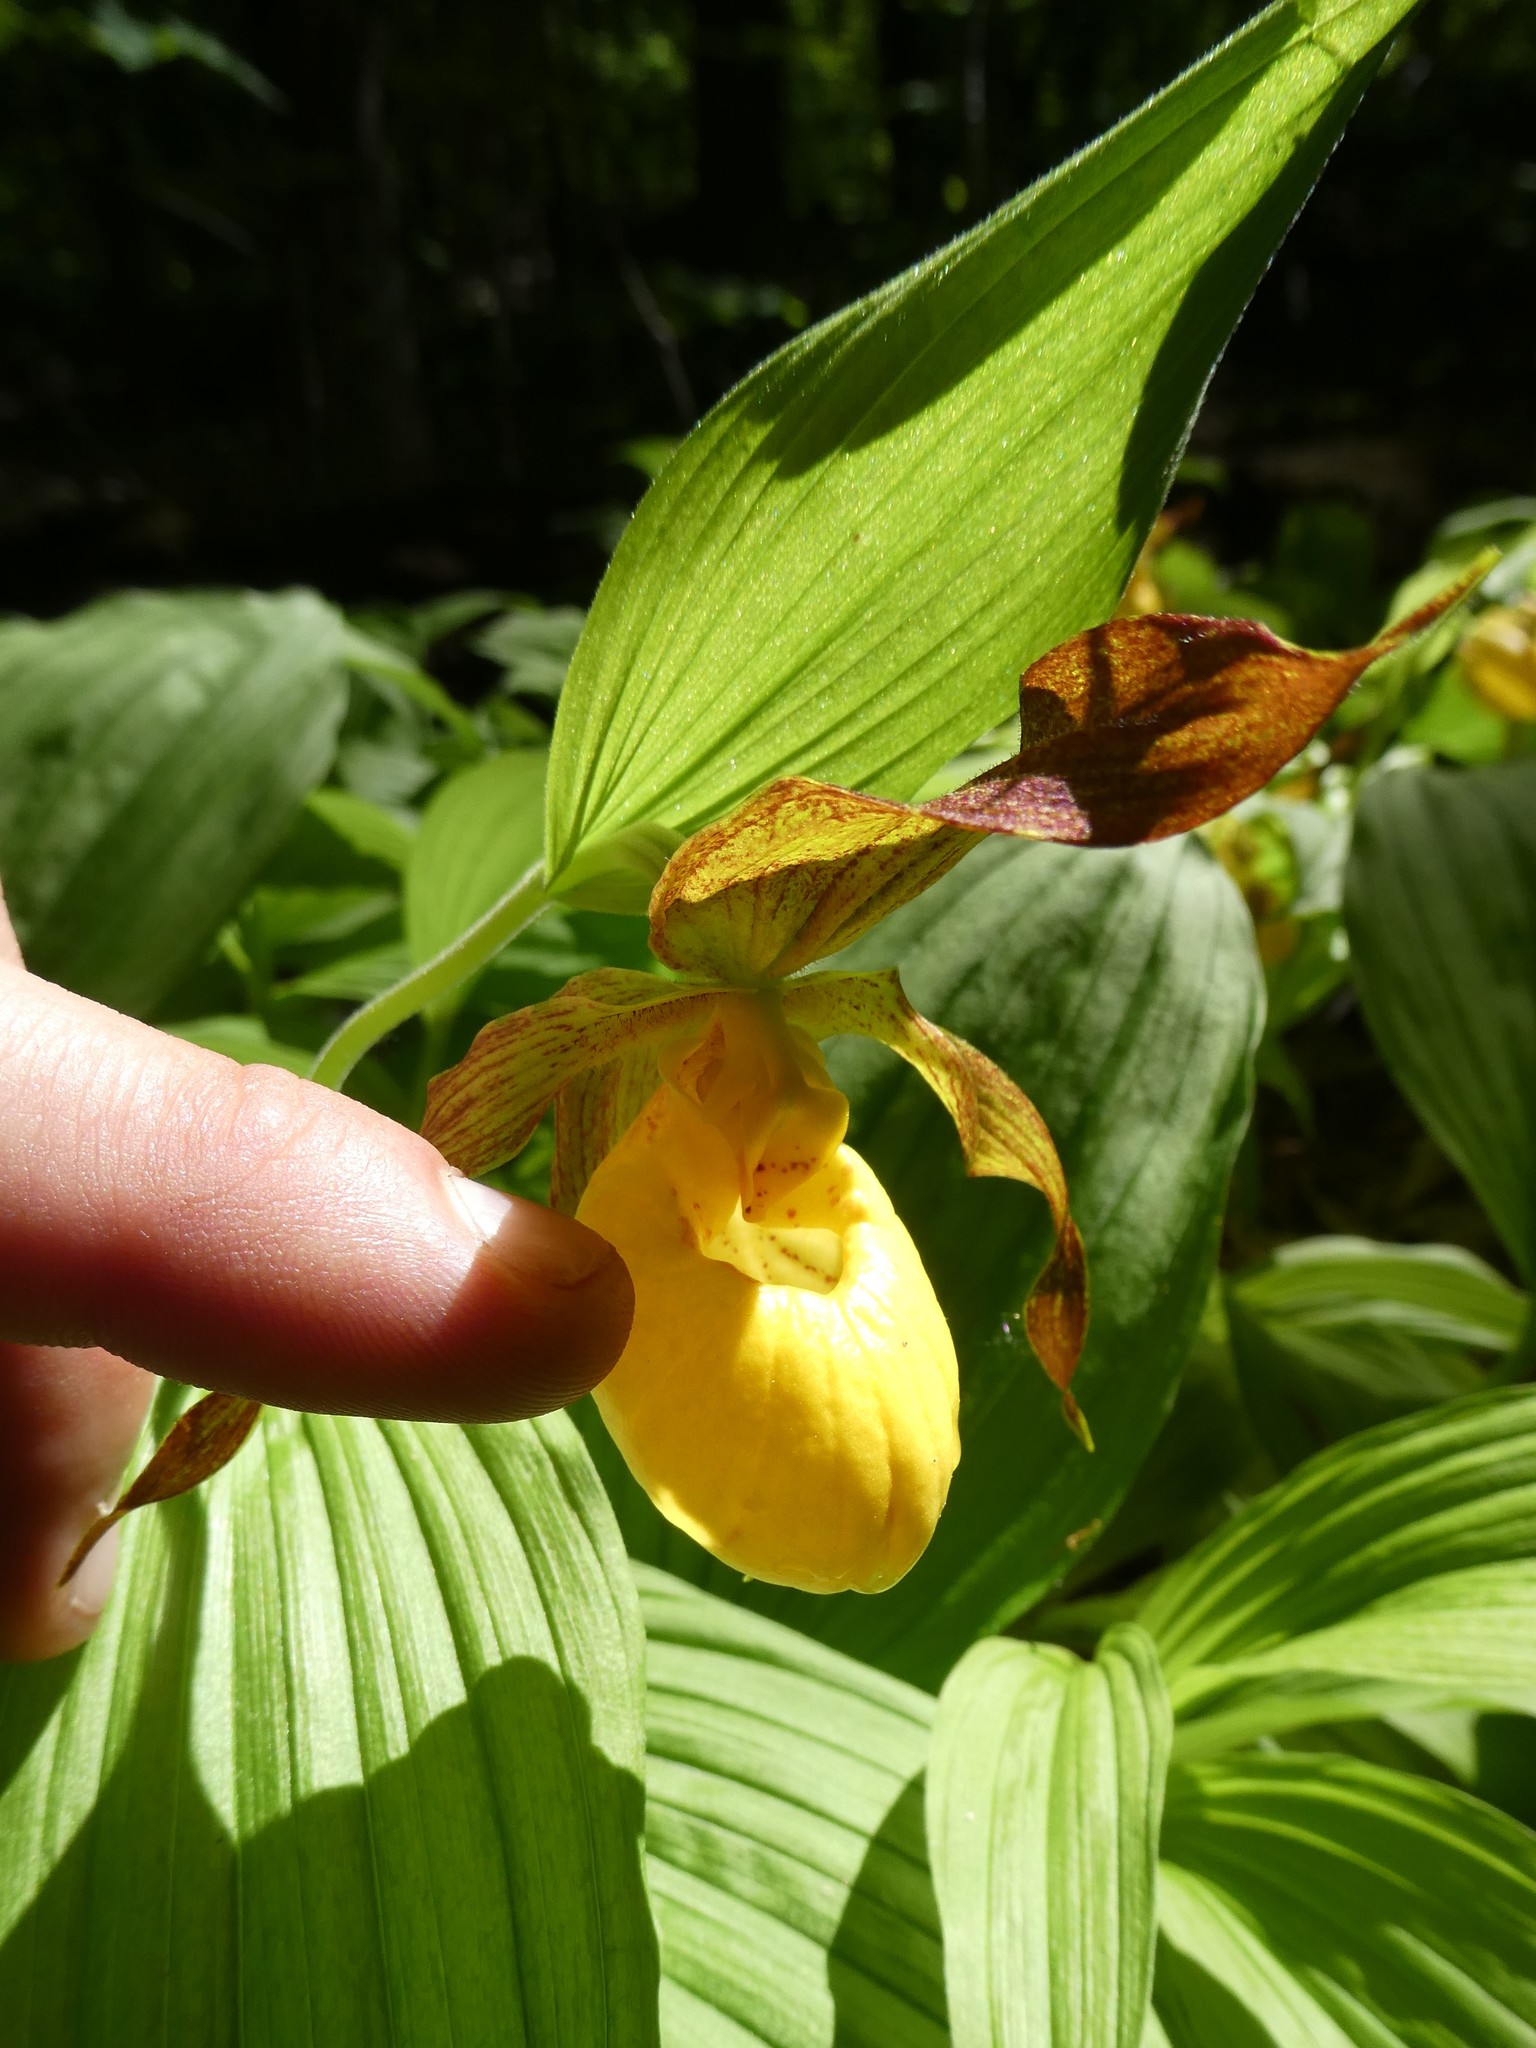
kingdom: Plantae
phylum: Tracheophyta
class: Liliopsida
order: Asparagales
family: Orchidaceae
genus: Cypripedium
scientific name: Cypripedium parviflorum
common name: American yellow lady's-slipper
